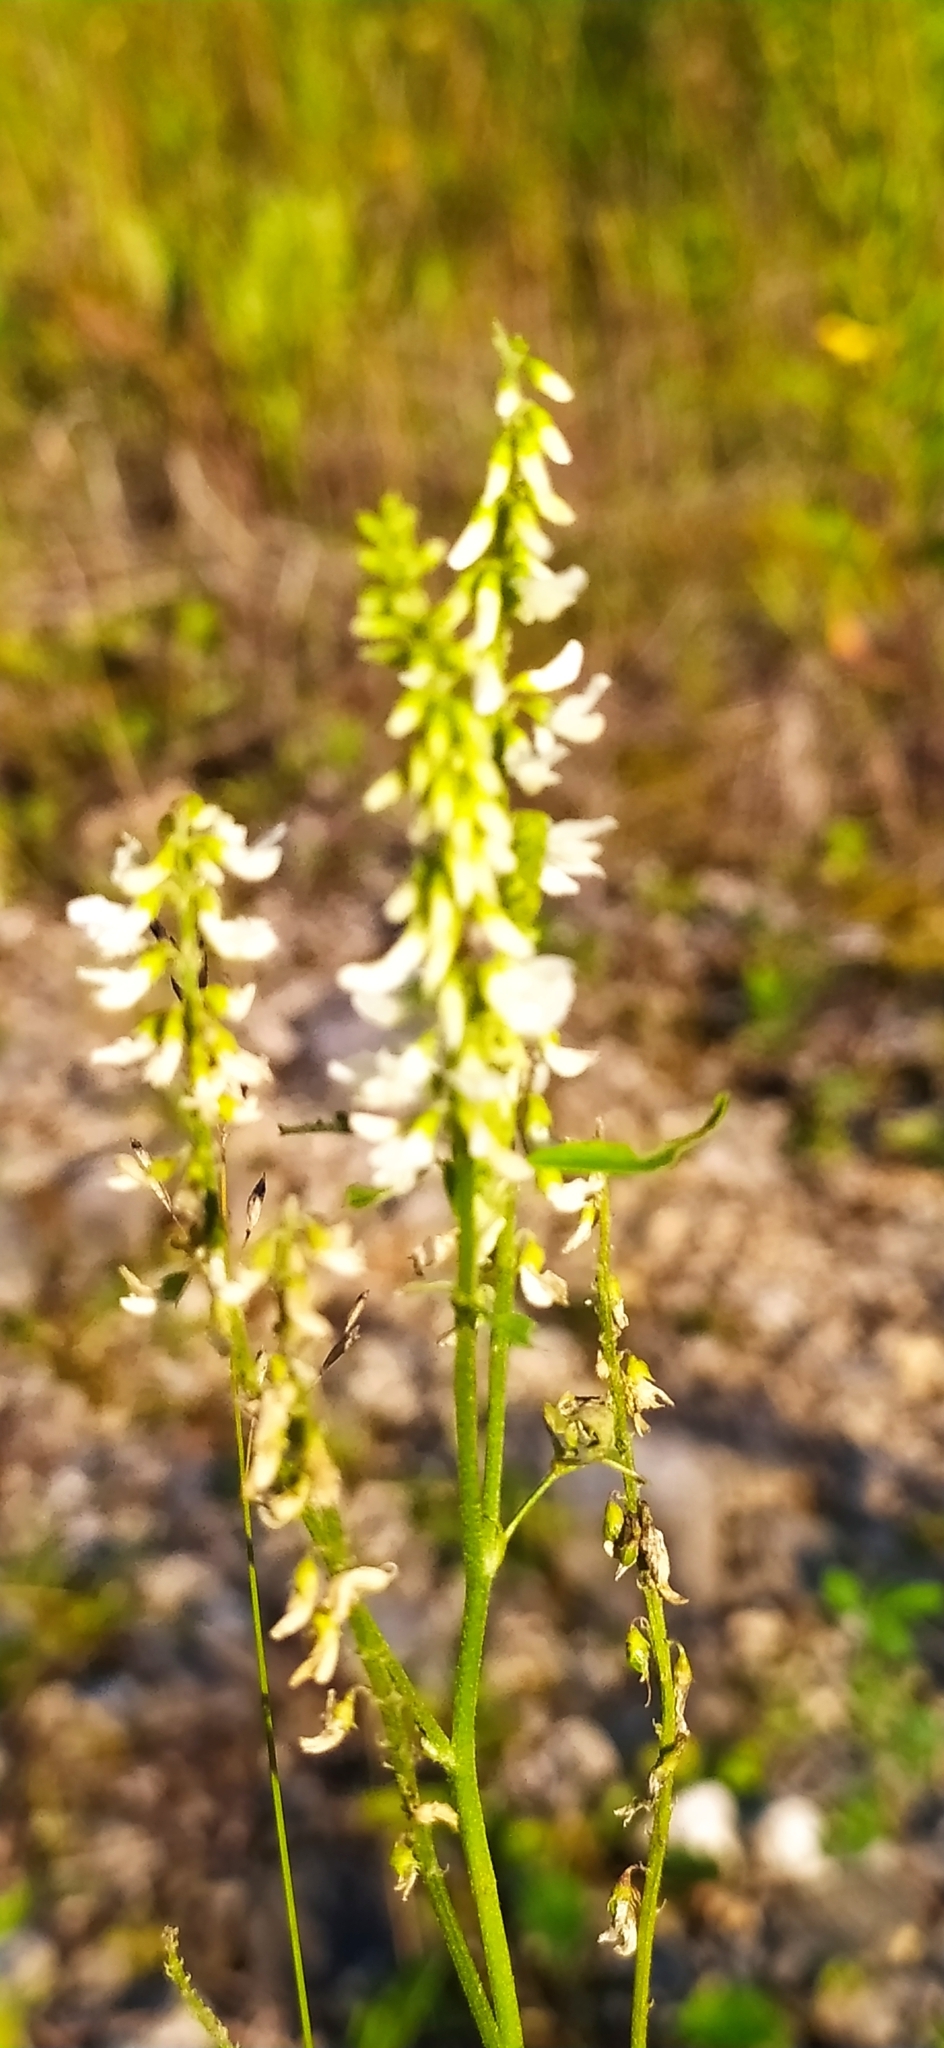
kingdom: Plantae
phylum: Tracheophyta
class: Magnoliopsida
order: Fabales
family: Fabaceae
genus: Melilotus
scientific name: Melilotus albus
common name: White melilot
